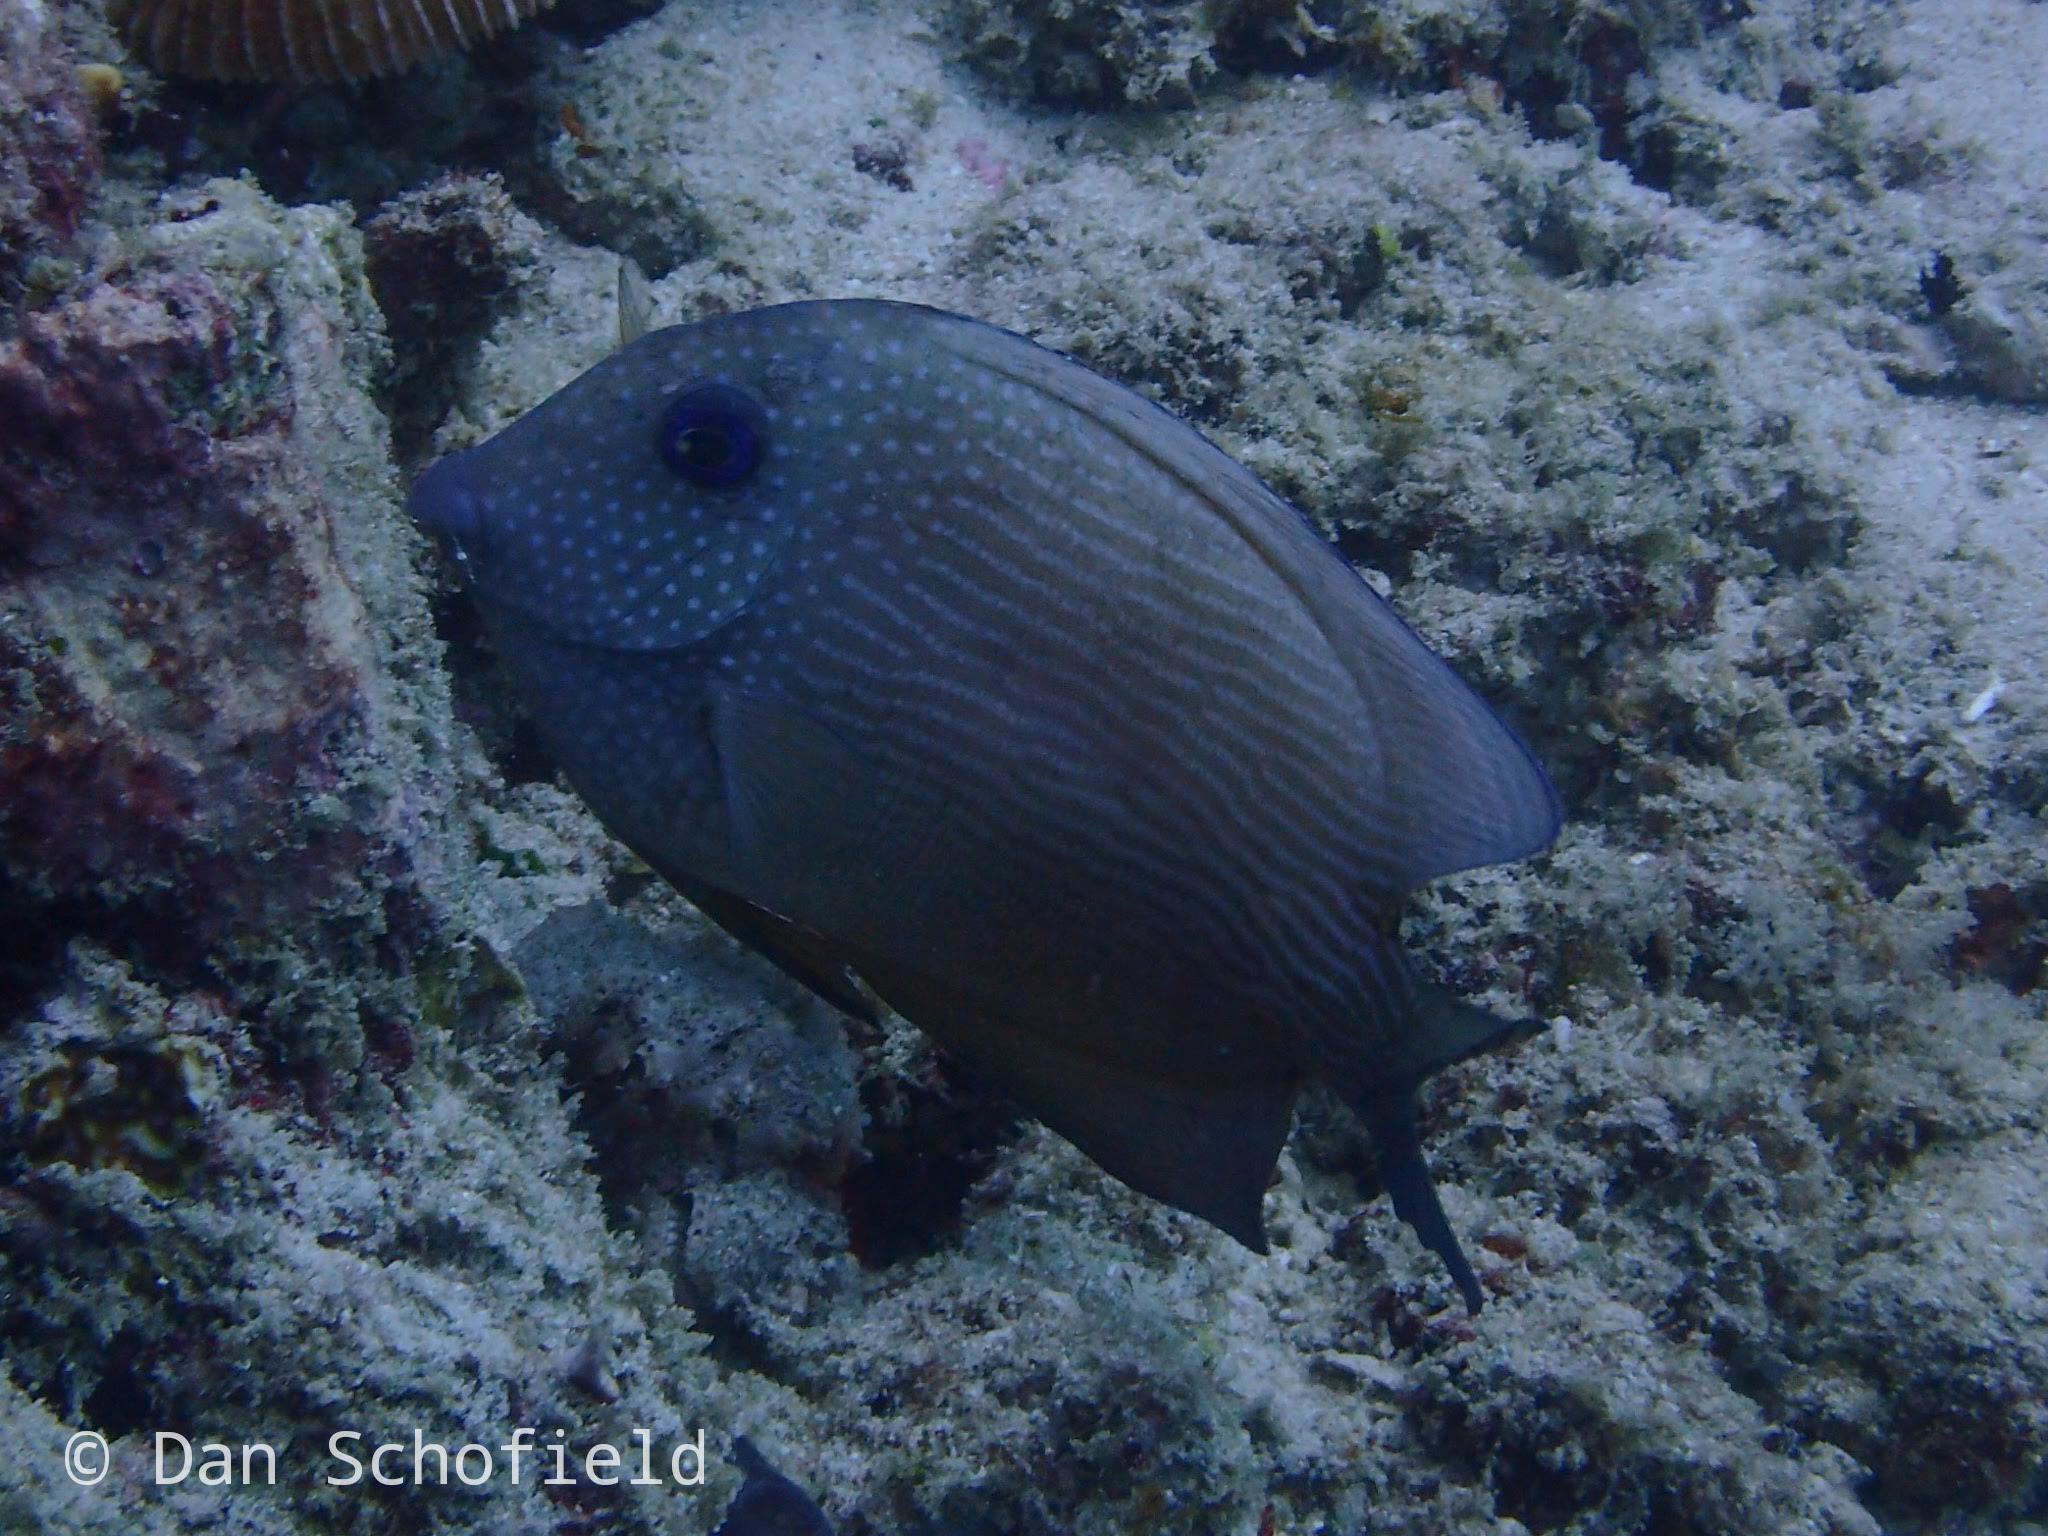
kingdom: Animalia
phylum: Chordata
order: Perciformes
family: Acanthuridae
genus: Ctenochaetus
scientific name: Ctenochaetus cyanocheilus
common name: Short-tail bristle-tooth
